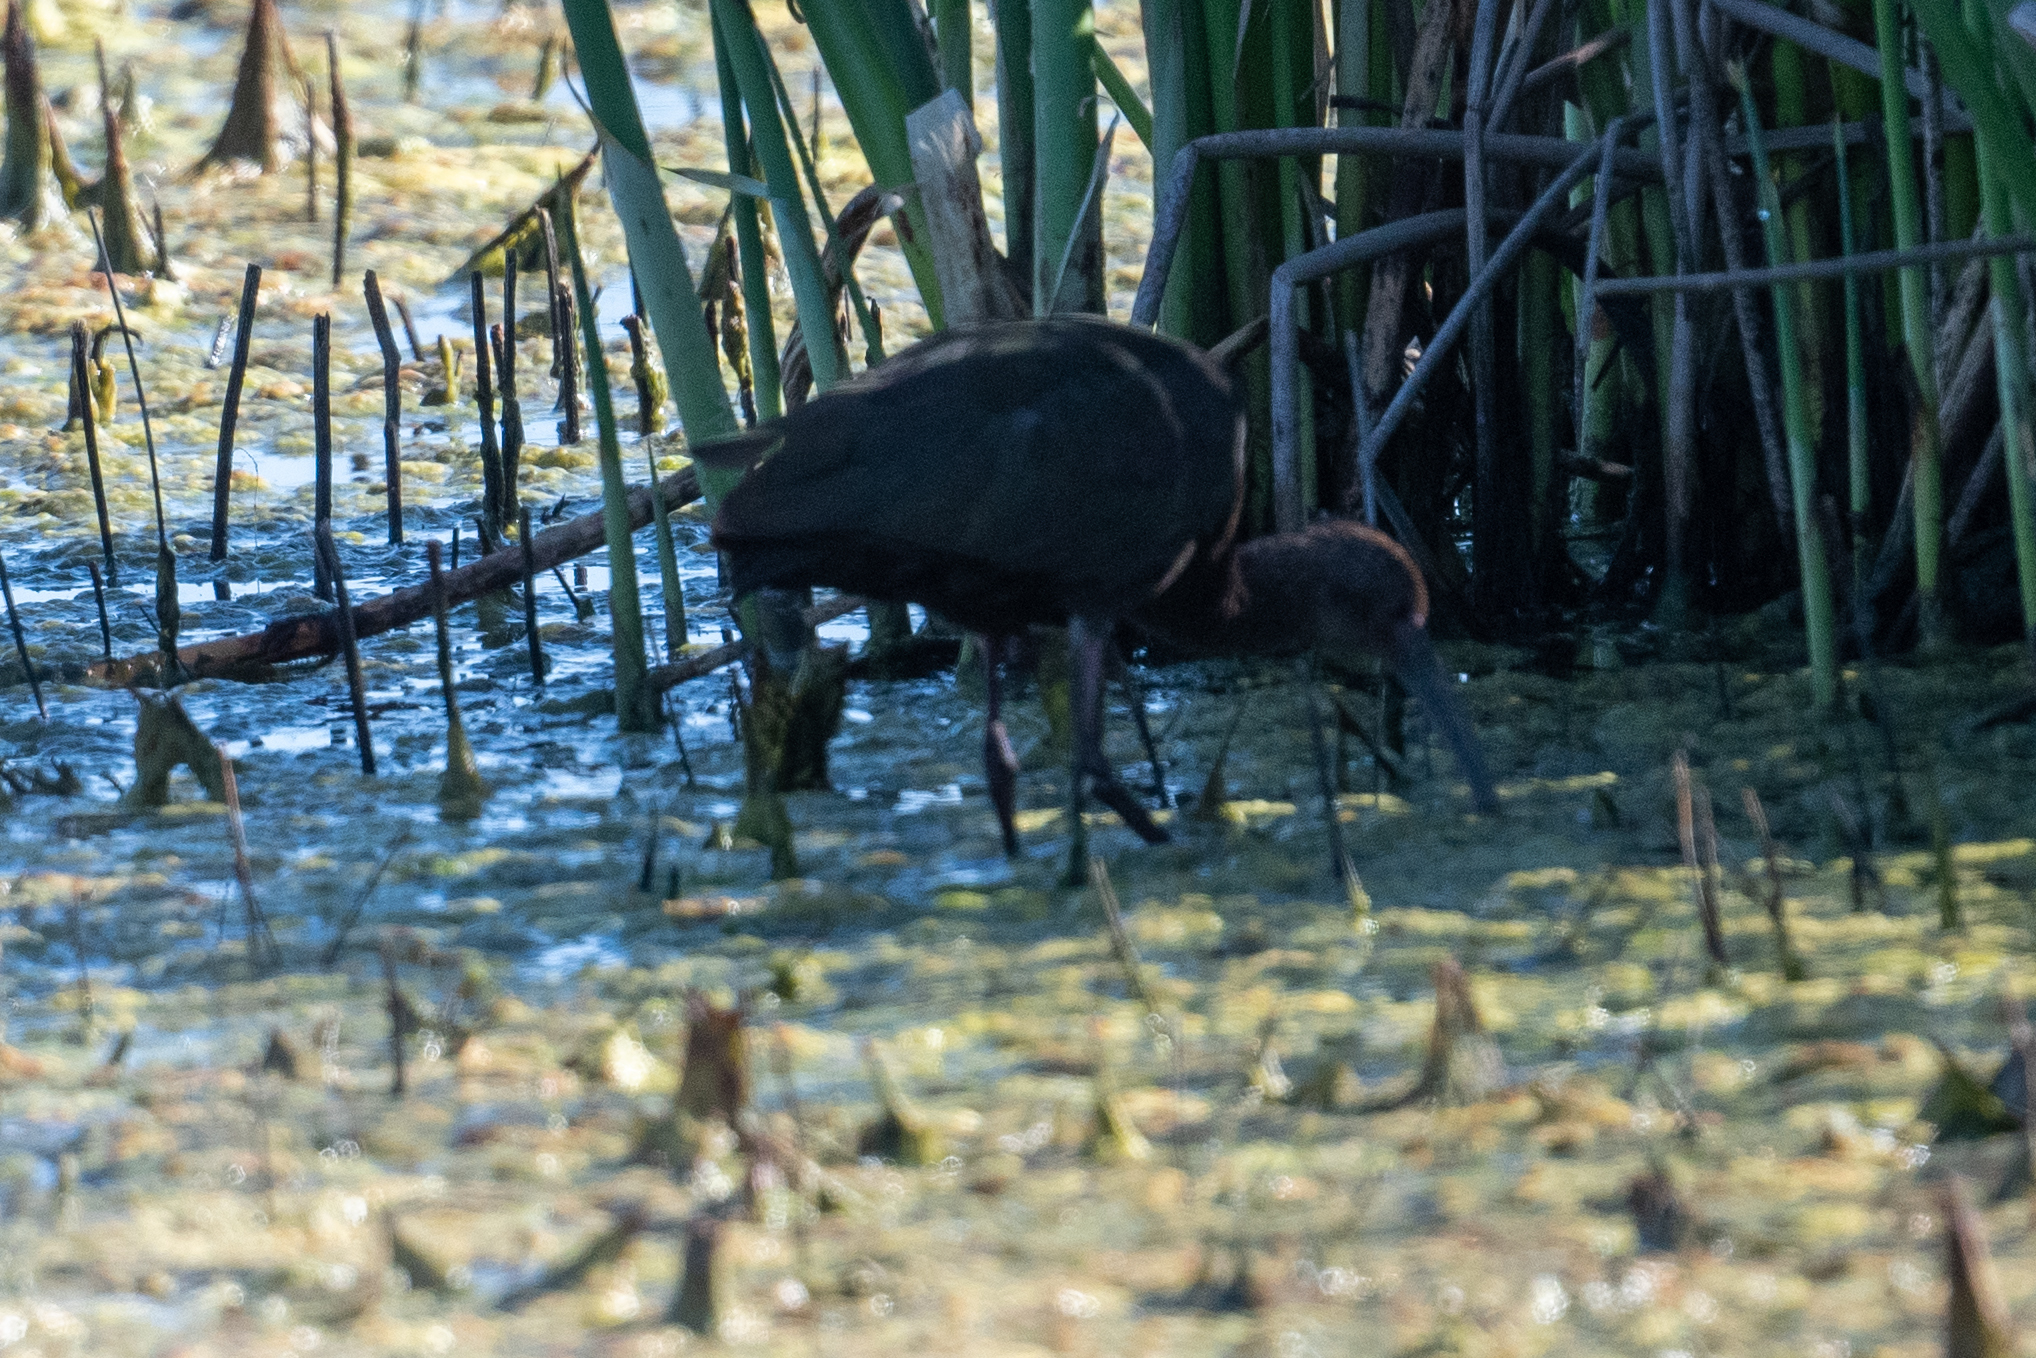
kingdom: Animalia
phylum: Chordata
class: Aves
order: Pelecaniformes
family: Threskiornithidae
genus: Plegadis
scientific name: Plegadis chihi
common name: White-faced ibis
